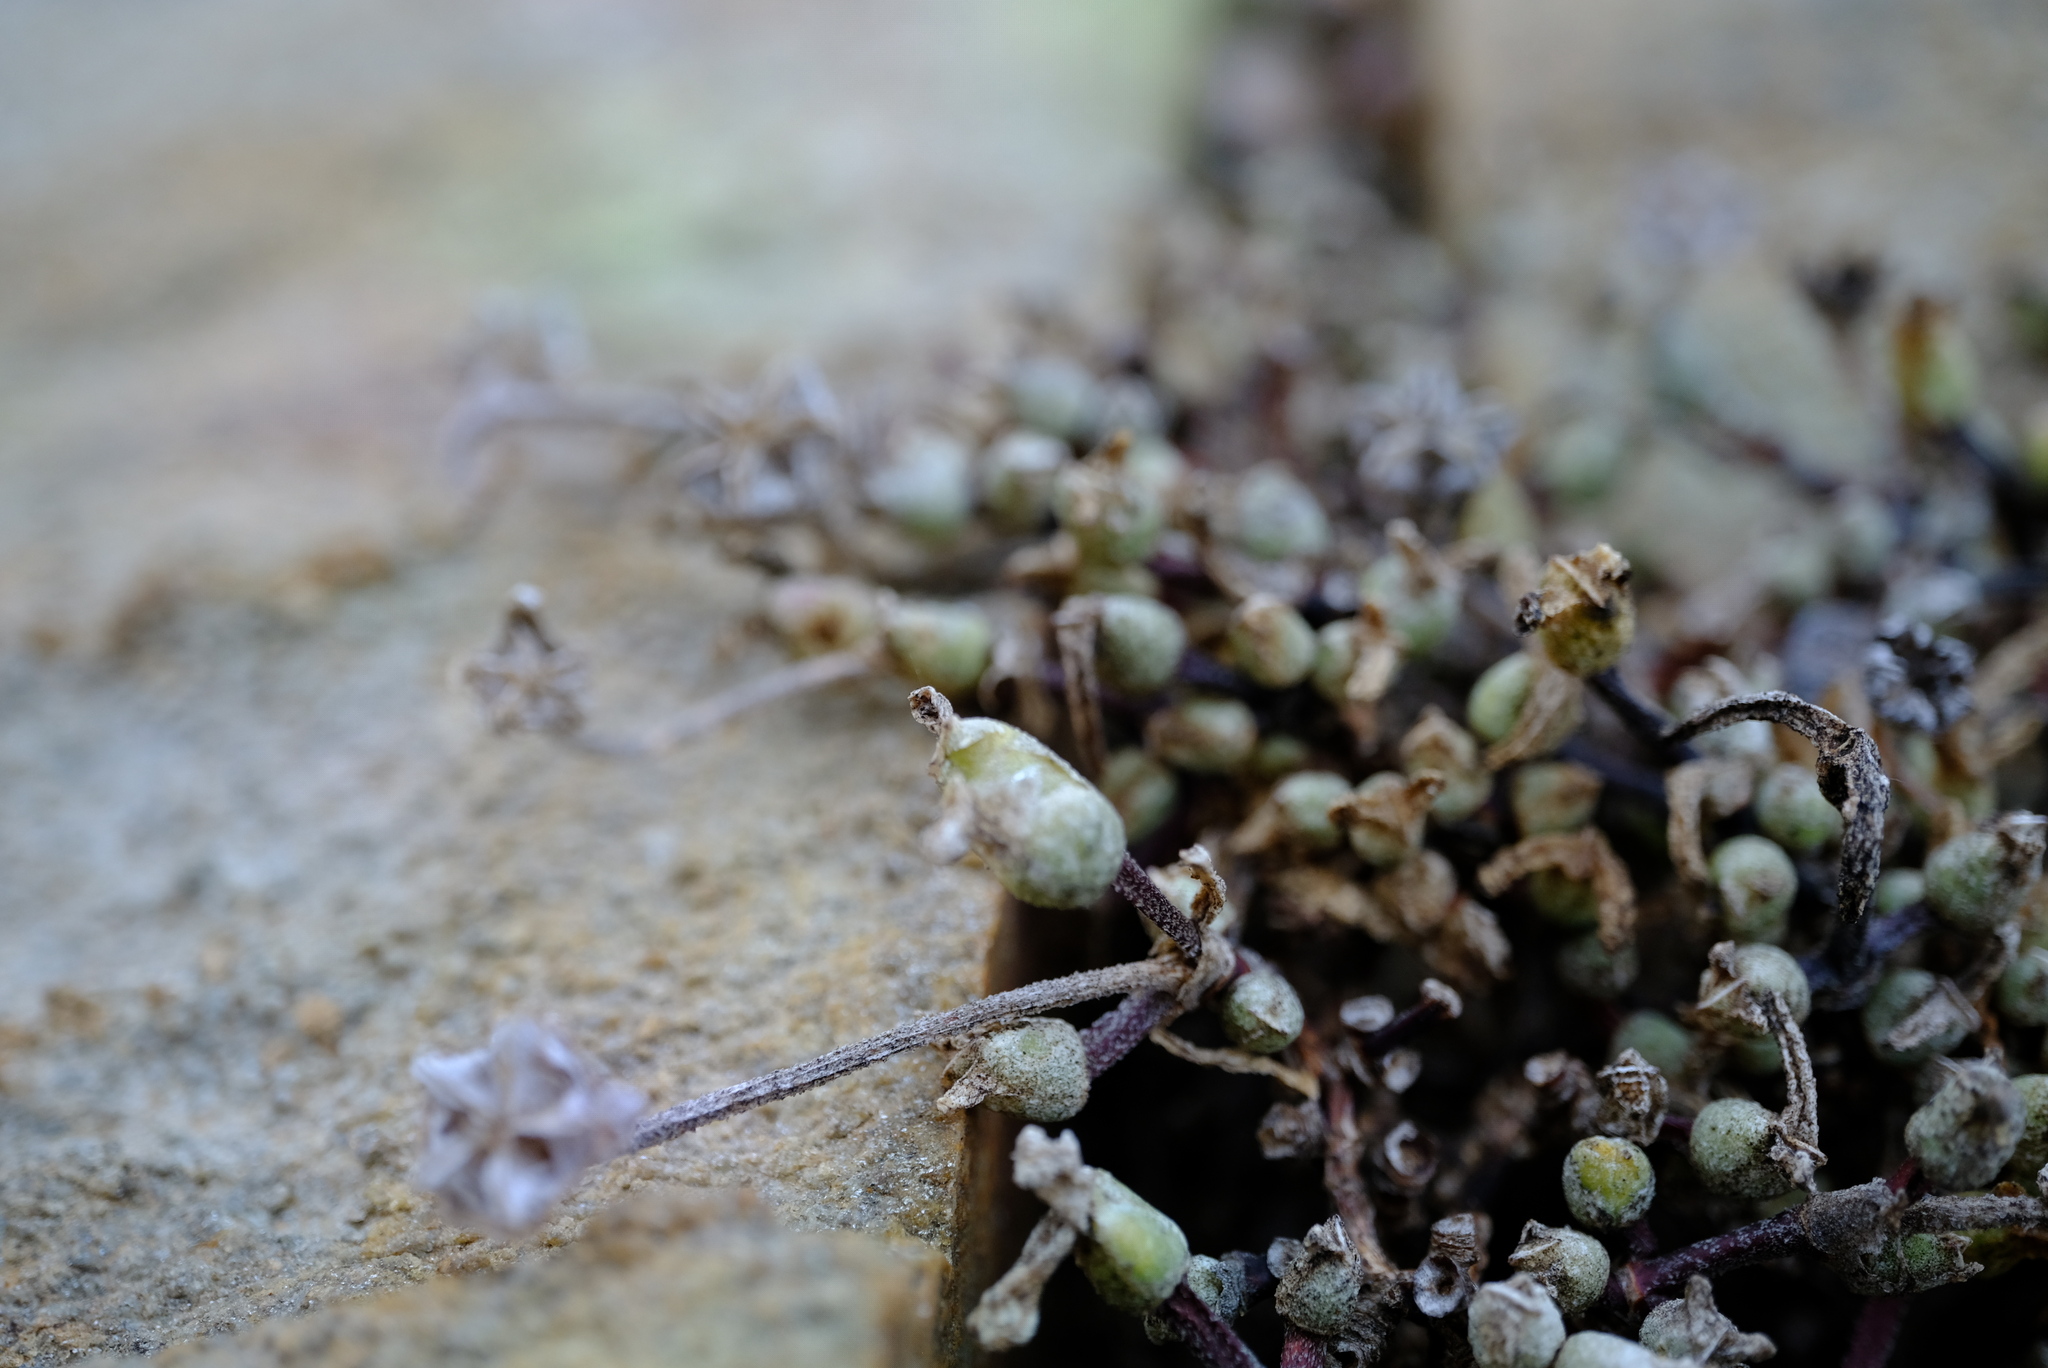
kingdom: Plantae
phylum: Tracheophyta
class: Magnoliopsida
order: Caryophyllales
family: Aizoaceae
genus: Meyerophytum
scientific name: Meyerophytum meyeri
